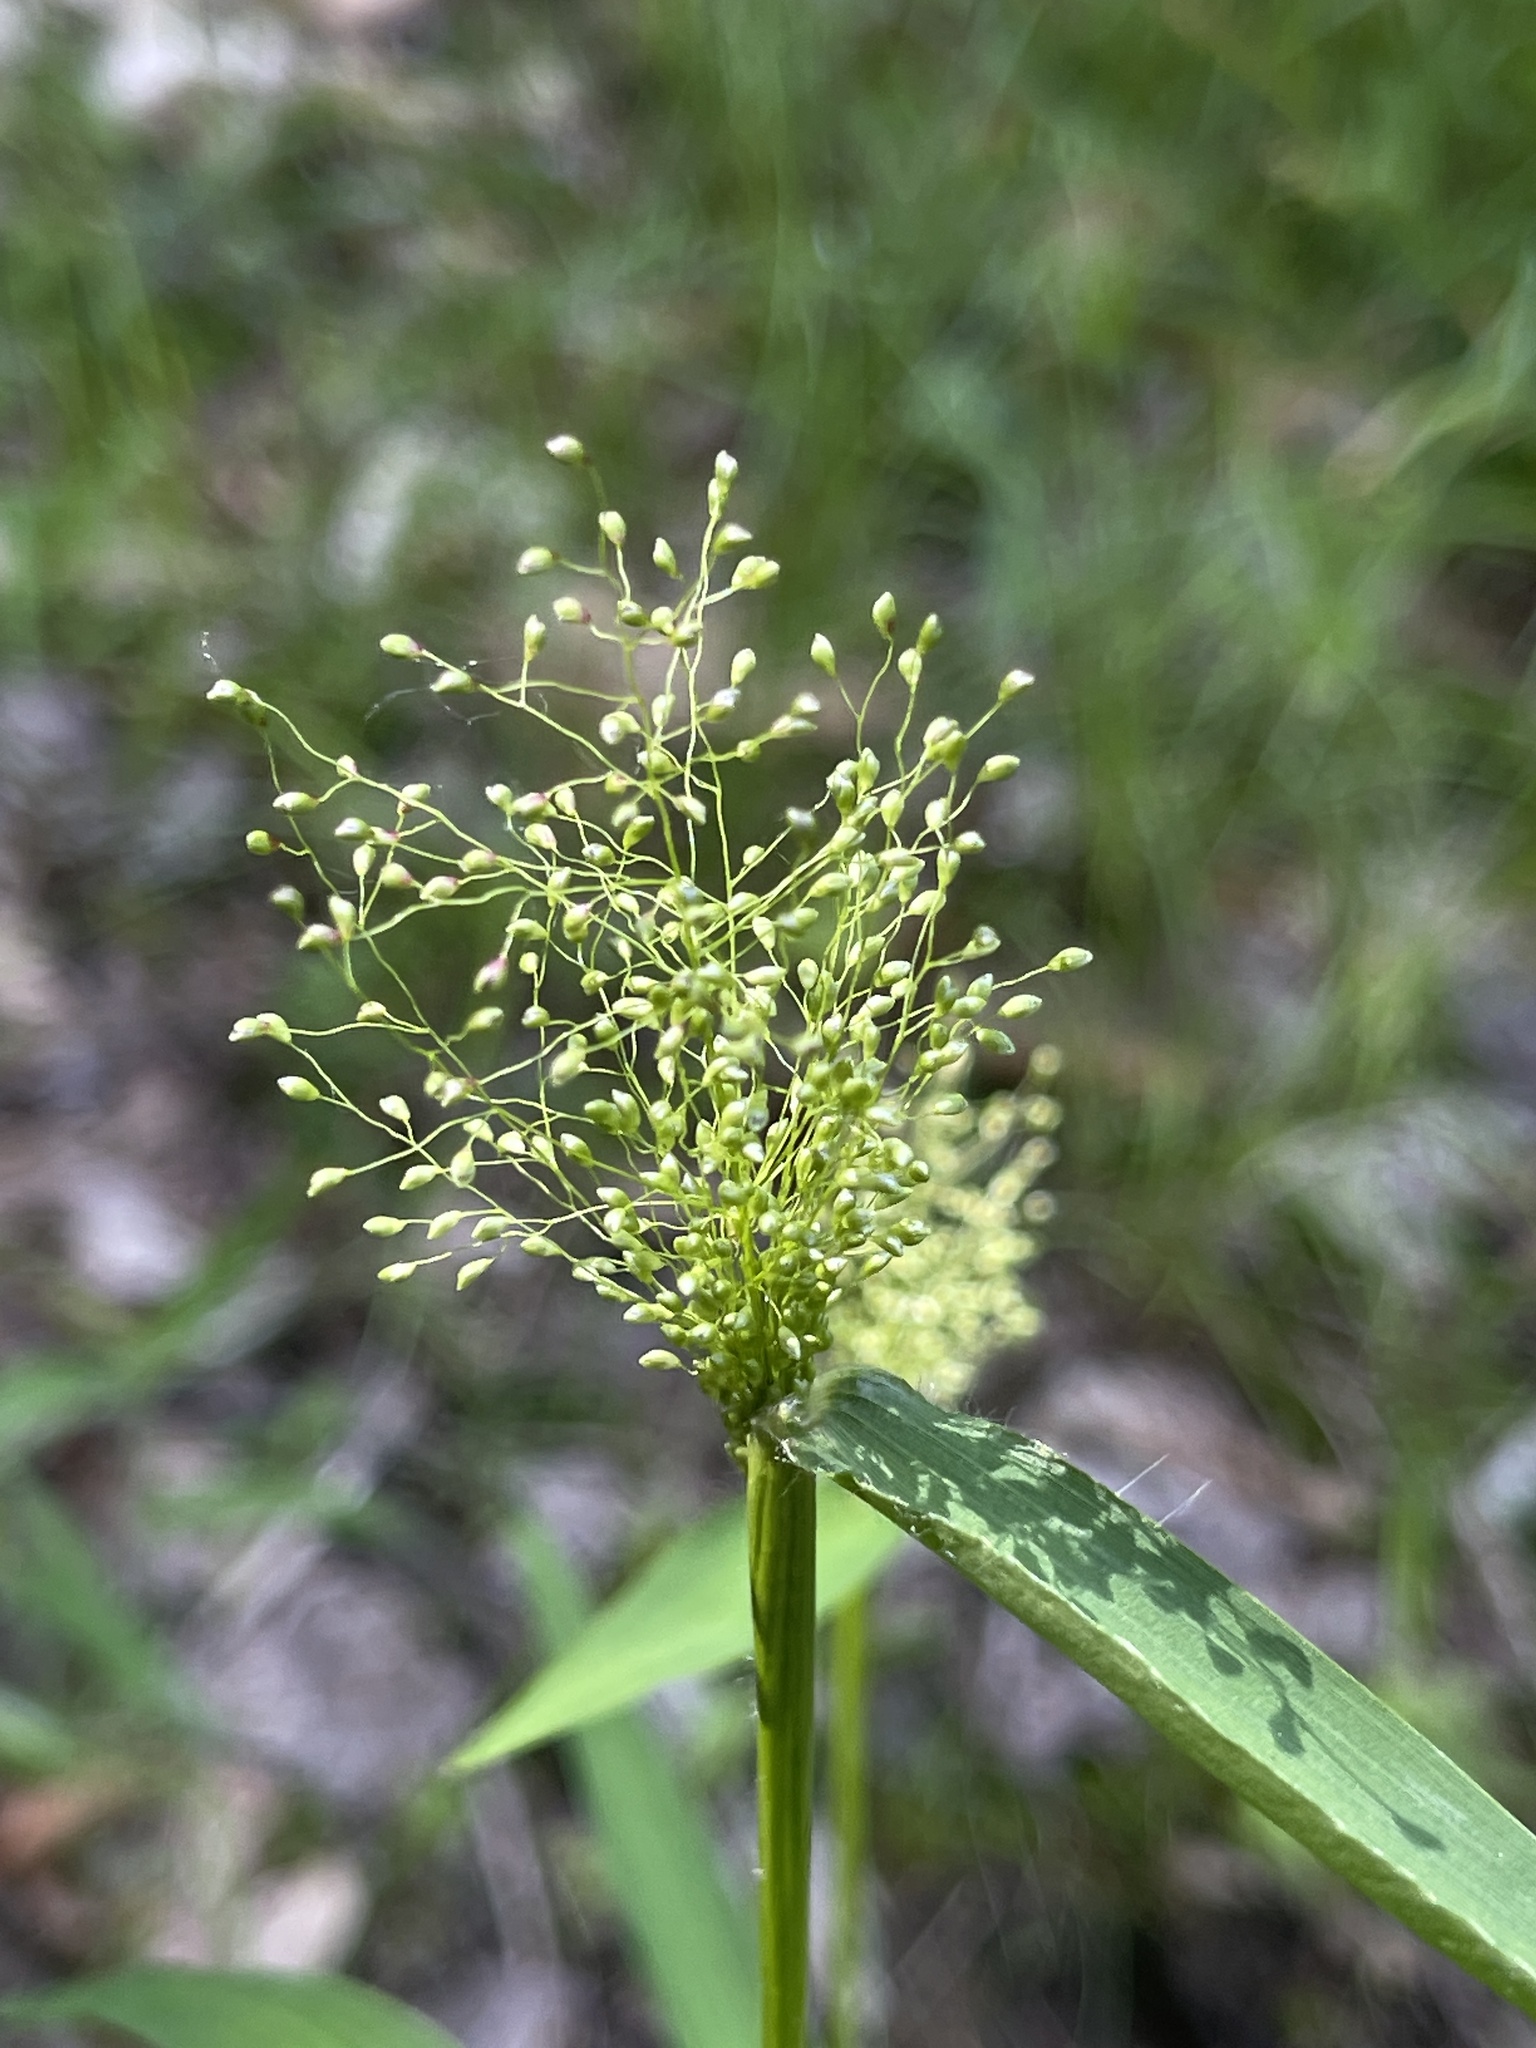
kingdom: Plantae
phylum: Tracheophyta
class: Liliopsida
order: Poales
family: Poaceae
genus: Dichanthelium
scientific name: Dichanthelium microcarpon
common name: Small-fruited witchgrass
